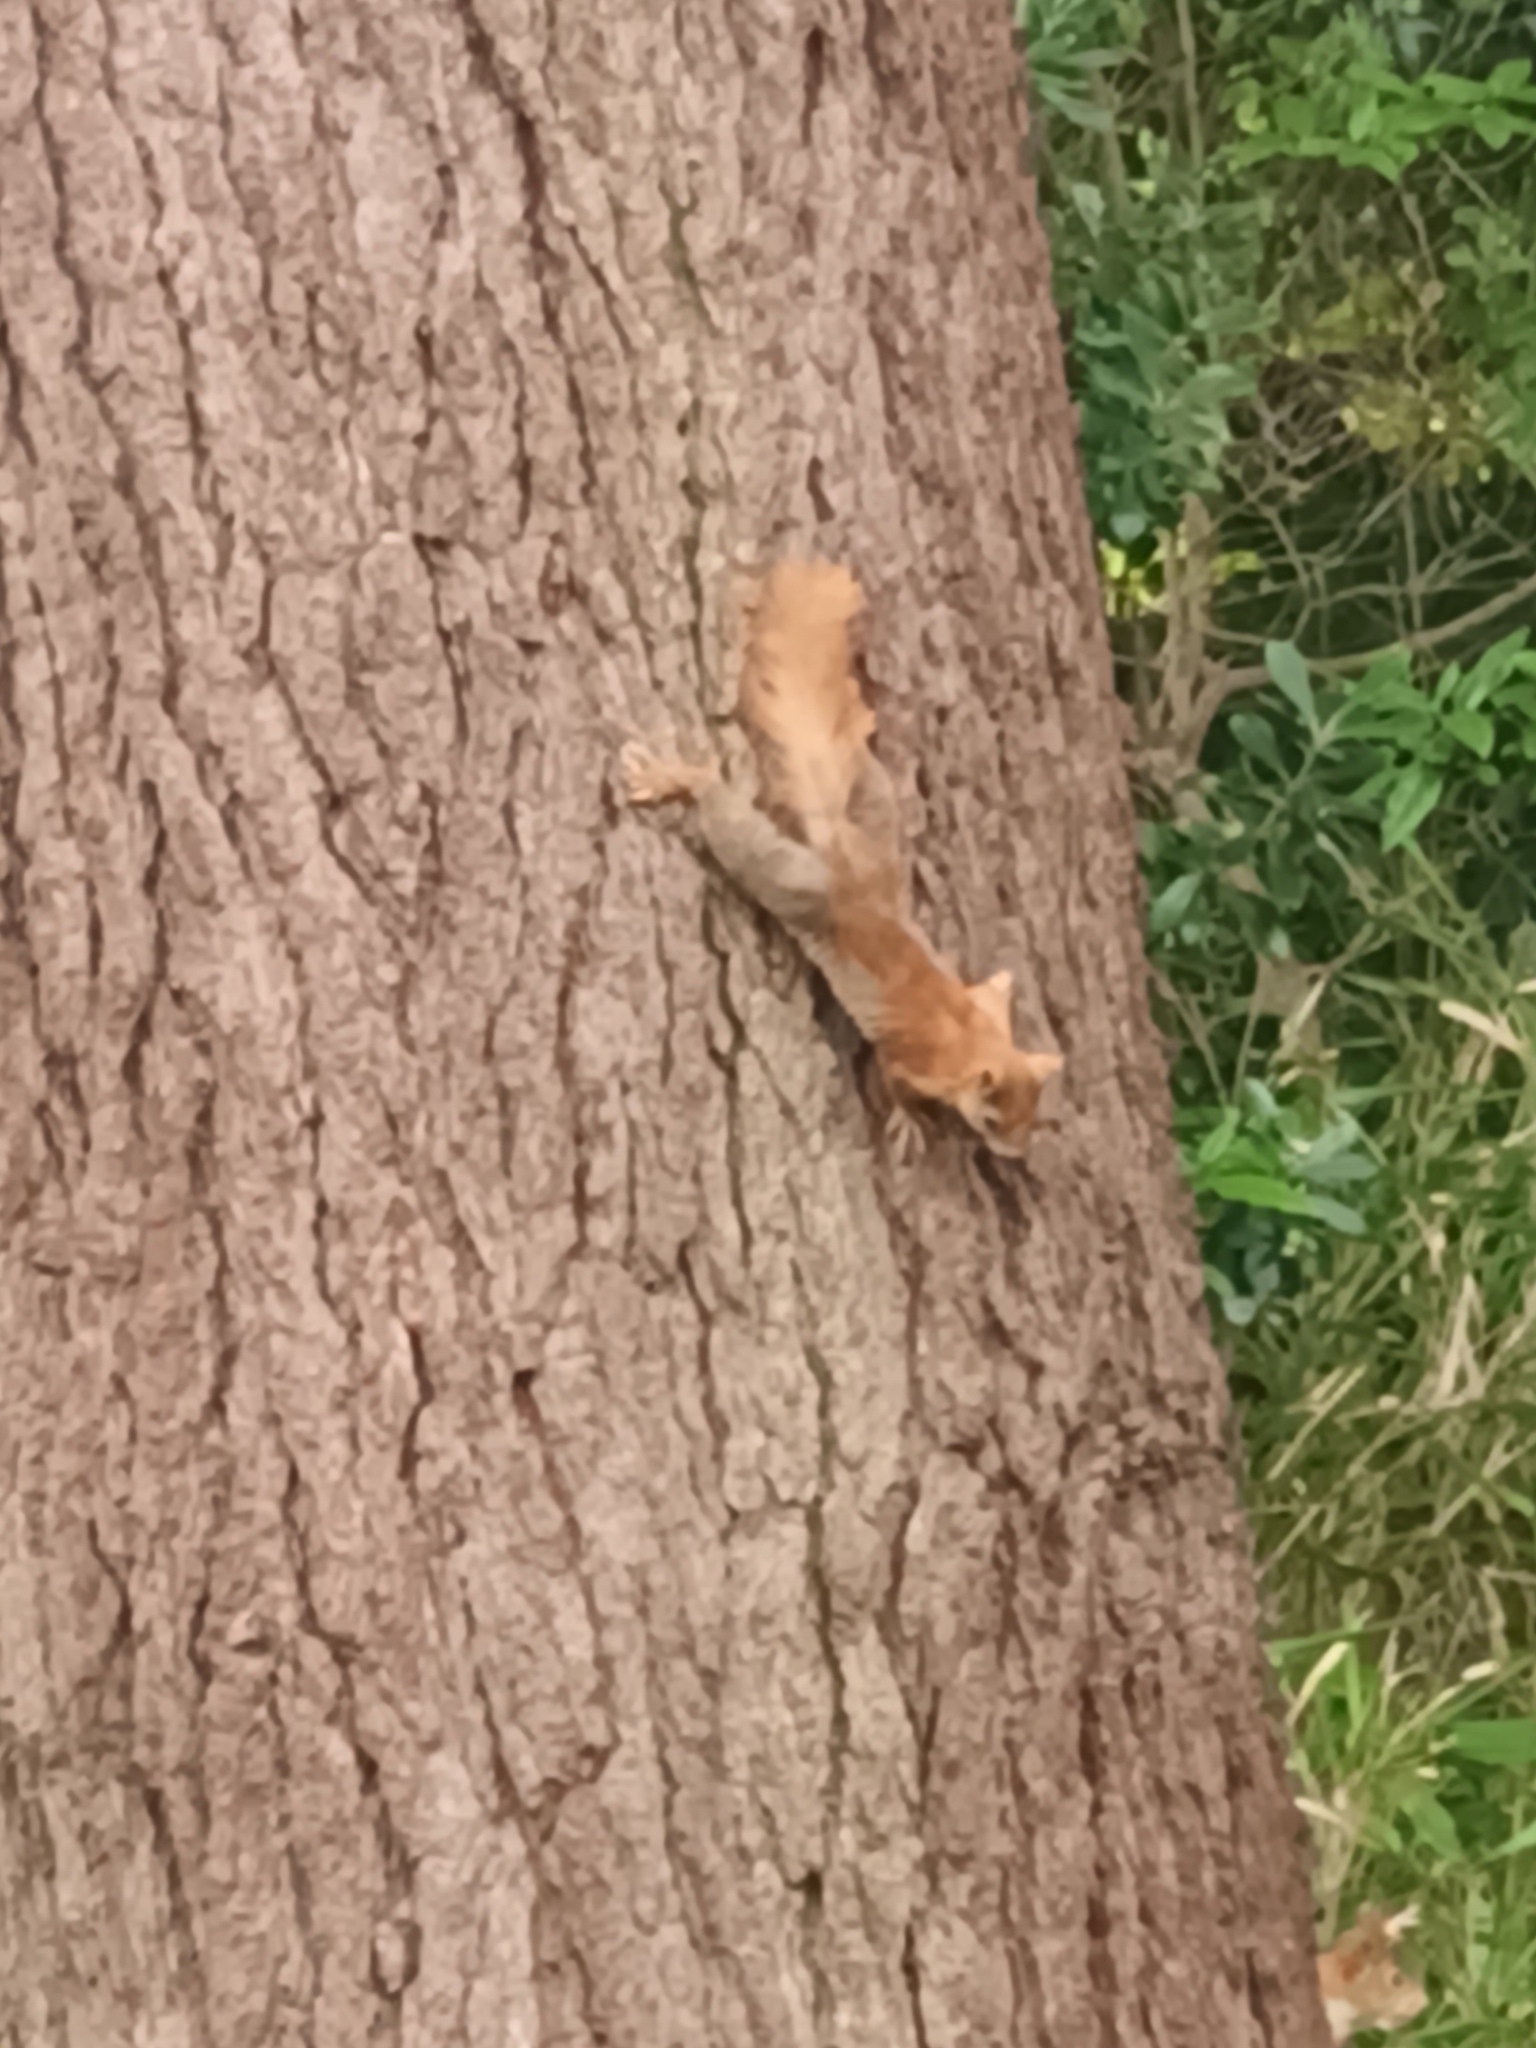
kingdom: Animalia
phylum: Chordata
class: Mammalia
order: Rodentia
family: Sciuridae
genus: Sciurus
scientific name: Sciurus vulgaris
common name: Eurasian red squirrel
